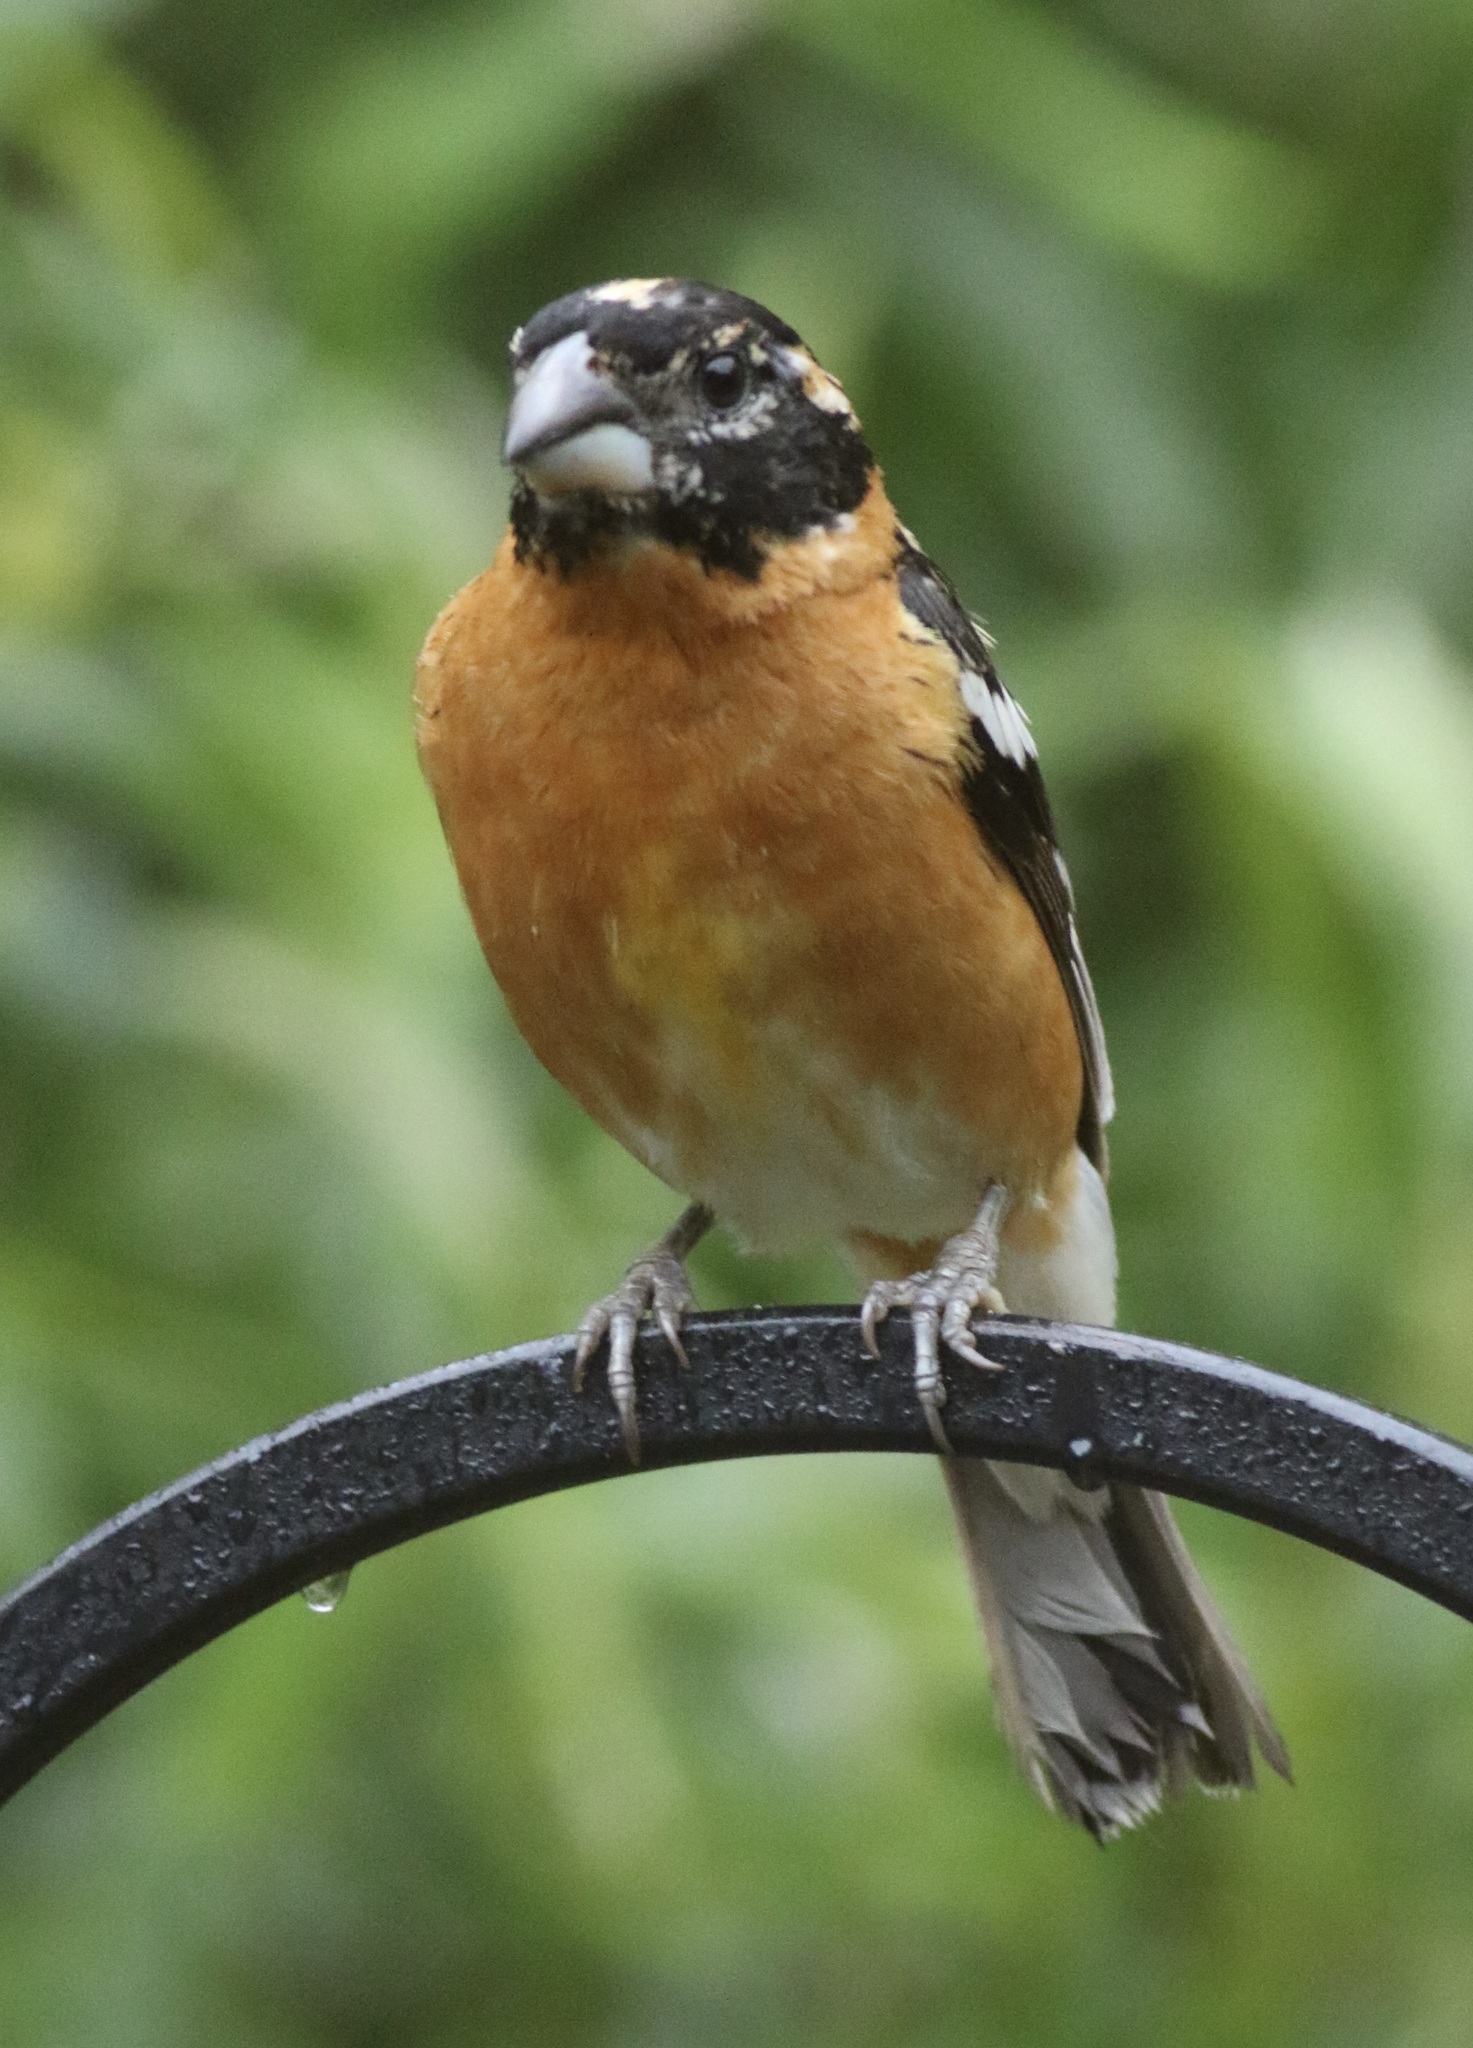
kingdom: Animalia
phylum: Chordata
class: Aves
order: Passeriformes
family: Cardinalidae
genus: Pheucticus
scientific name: Pheucticus melanocephalus
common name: Black-headed grosbeak
